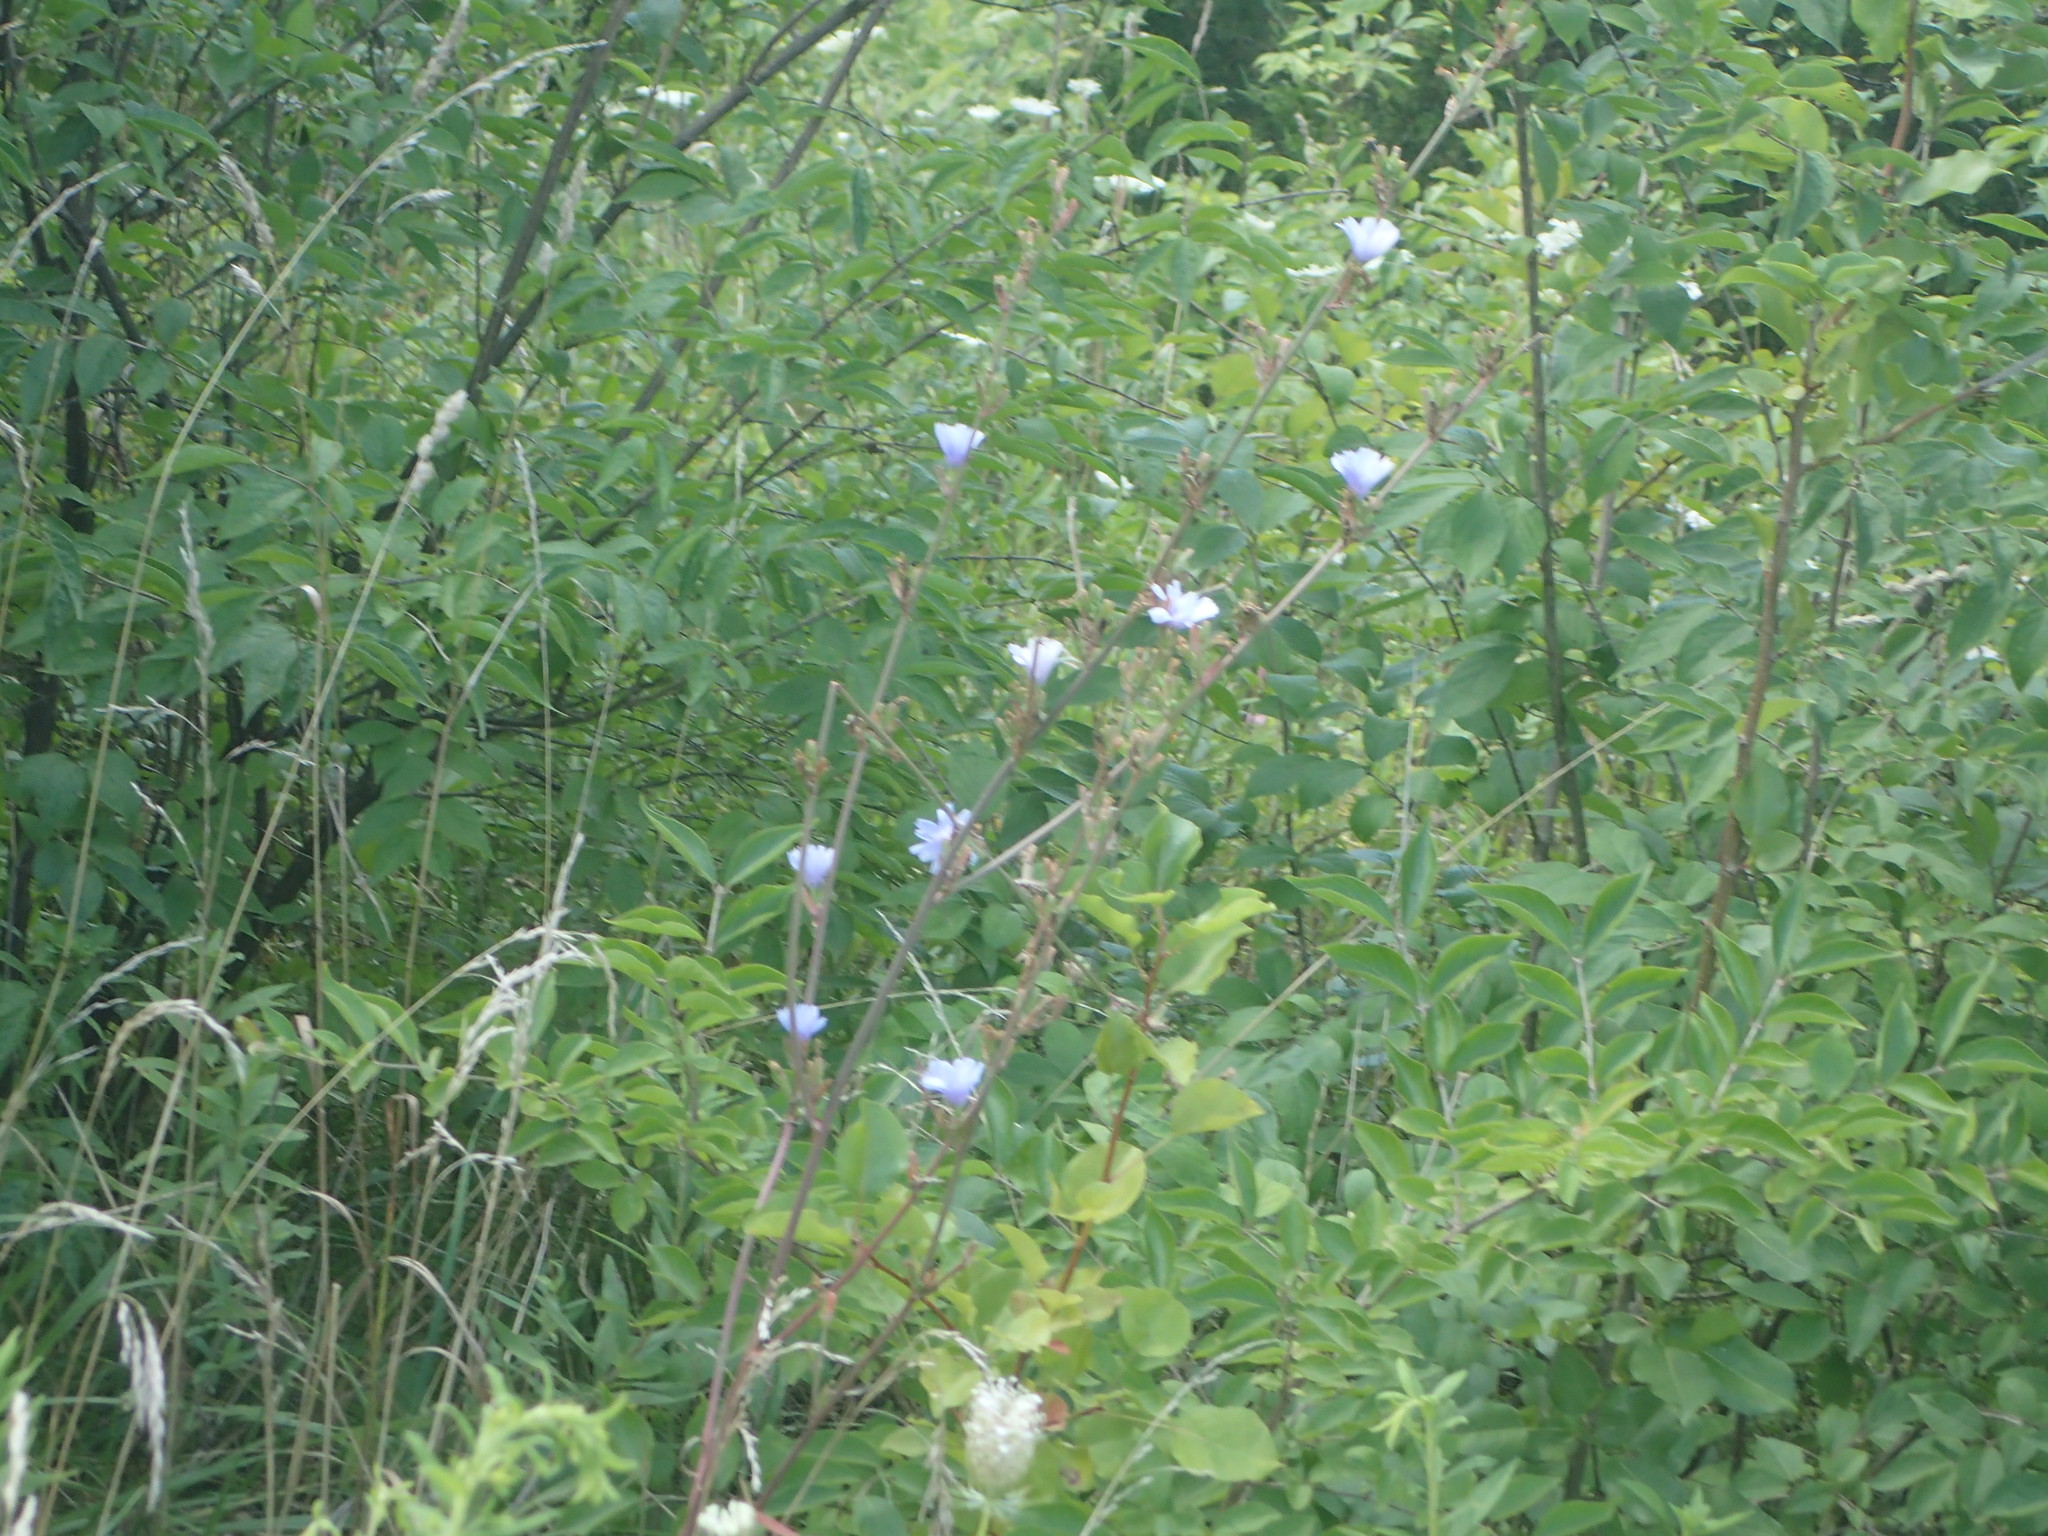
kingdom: Plantae
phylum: Tracheophyta
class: Magnoliopsida
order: Asterales
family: Asteraceae
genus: Cichorium
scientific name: Cichorium intybus
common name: Chicory
